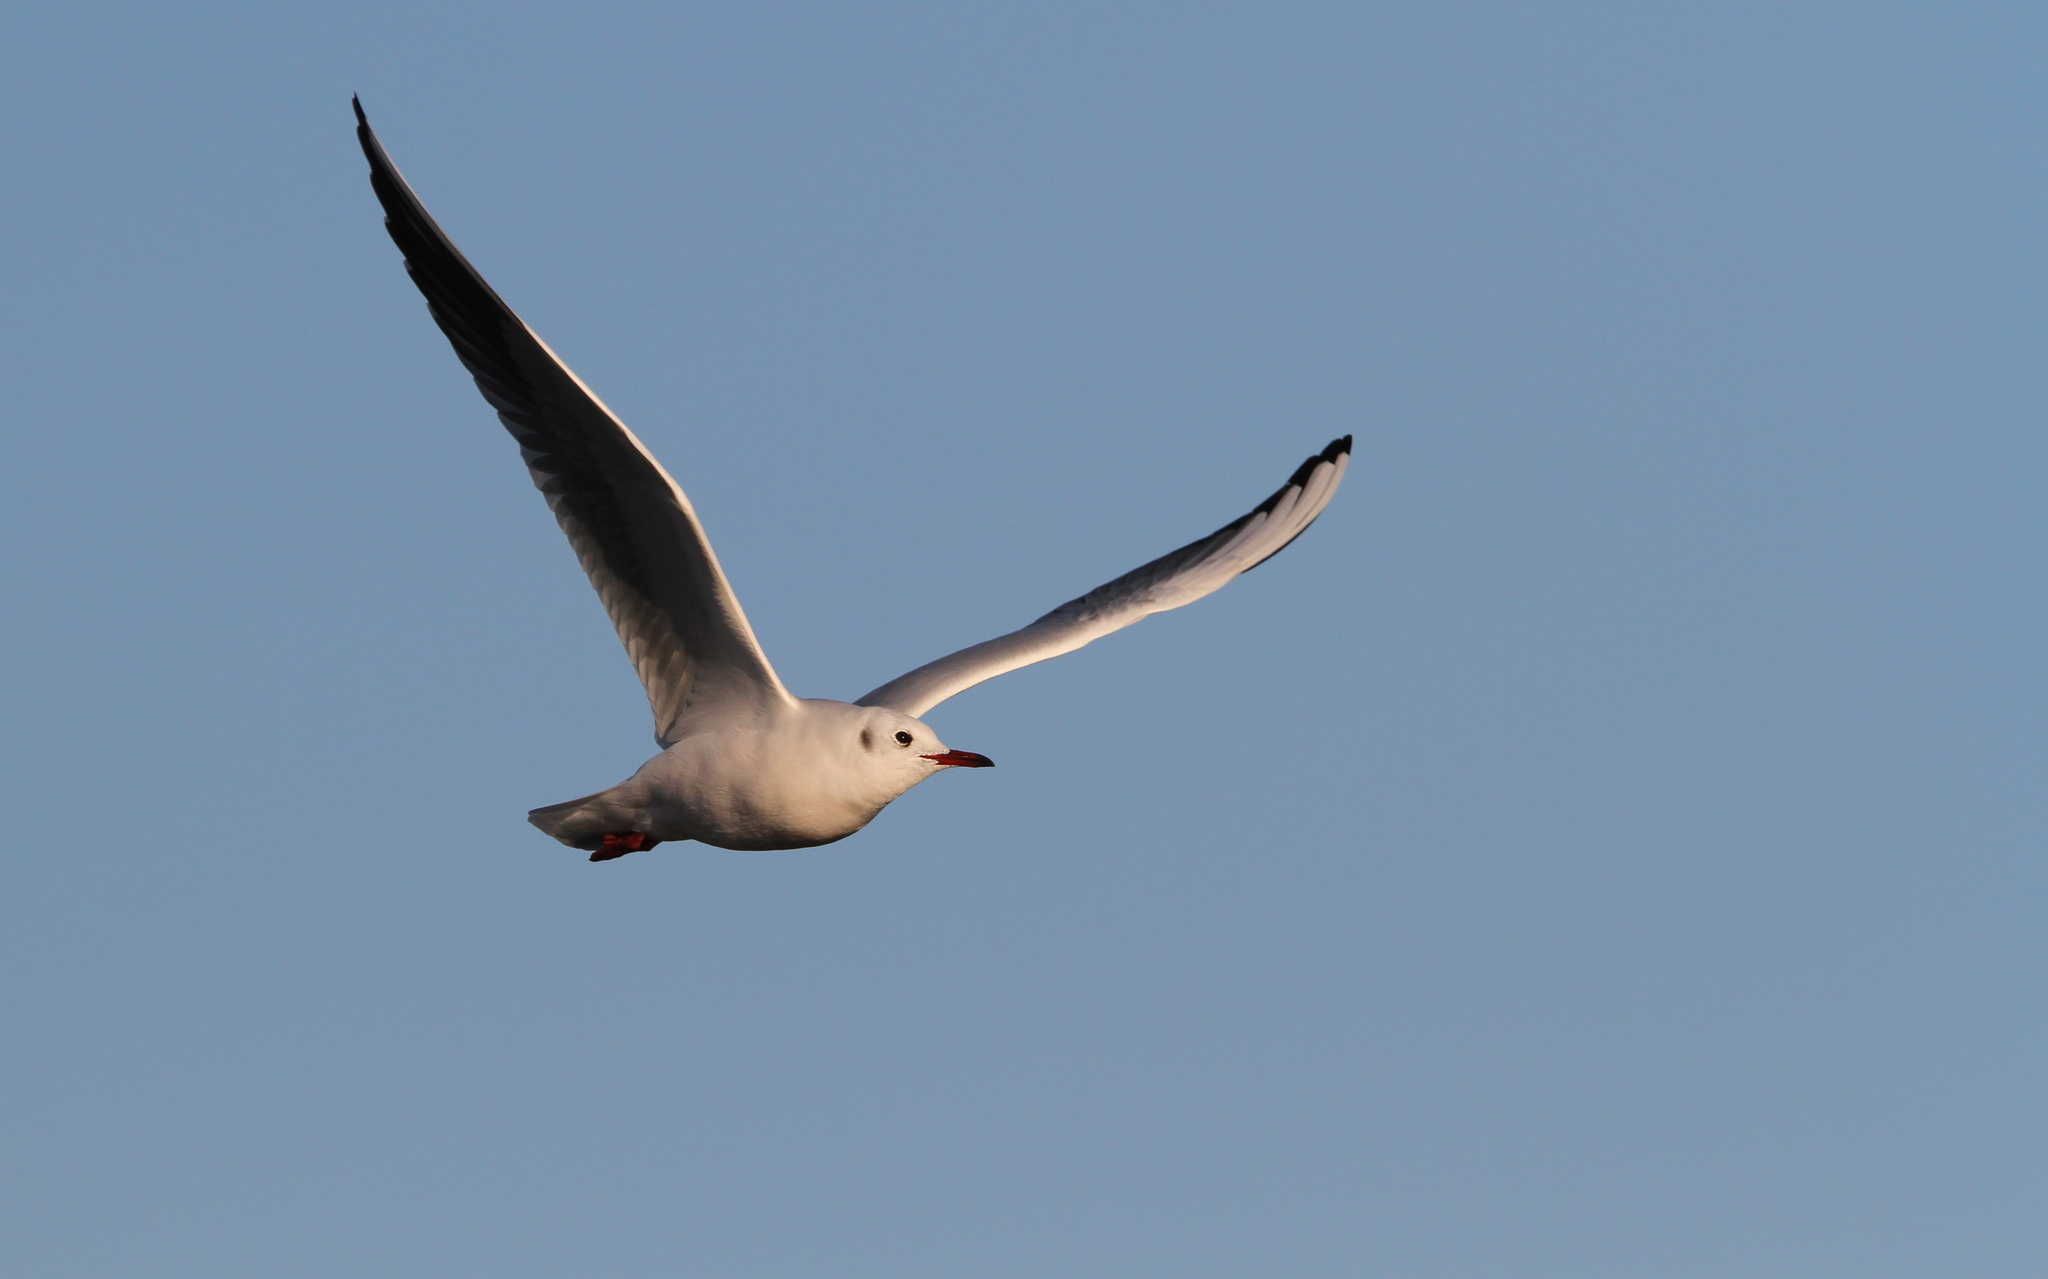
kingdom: Animalia
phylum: Chordata
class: Aves
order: Charadriiformes
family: Laridae
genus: Chroicocephalus
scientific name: Chroicocephalus ridibundus
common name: Black-headed gull
